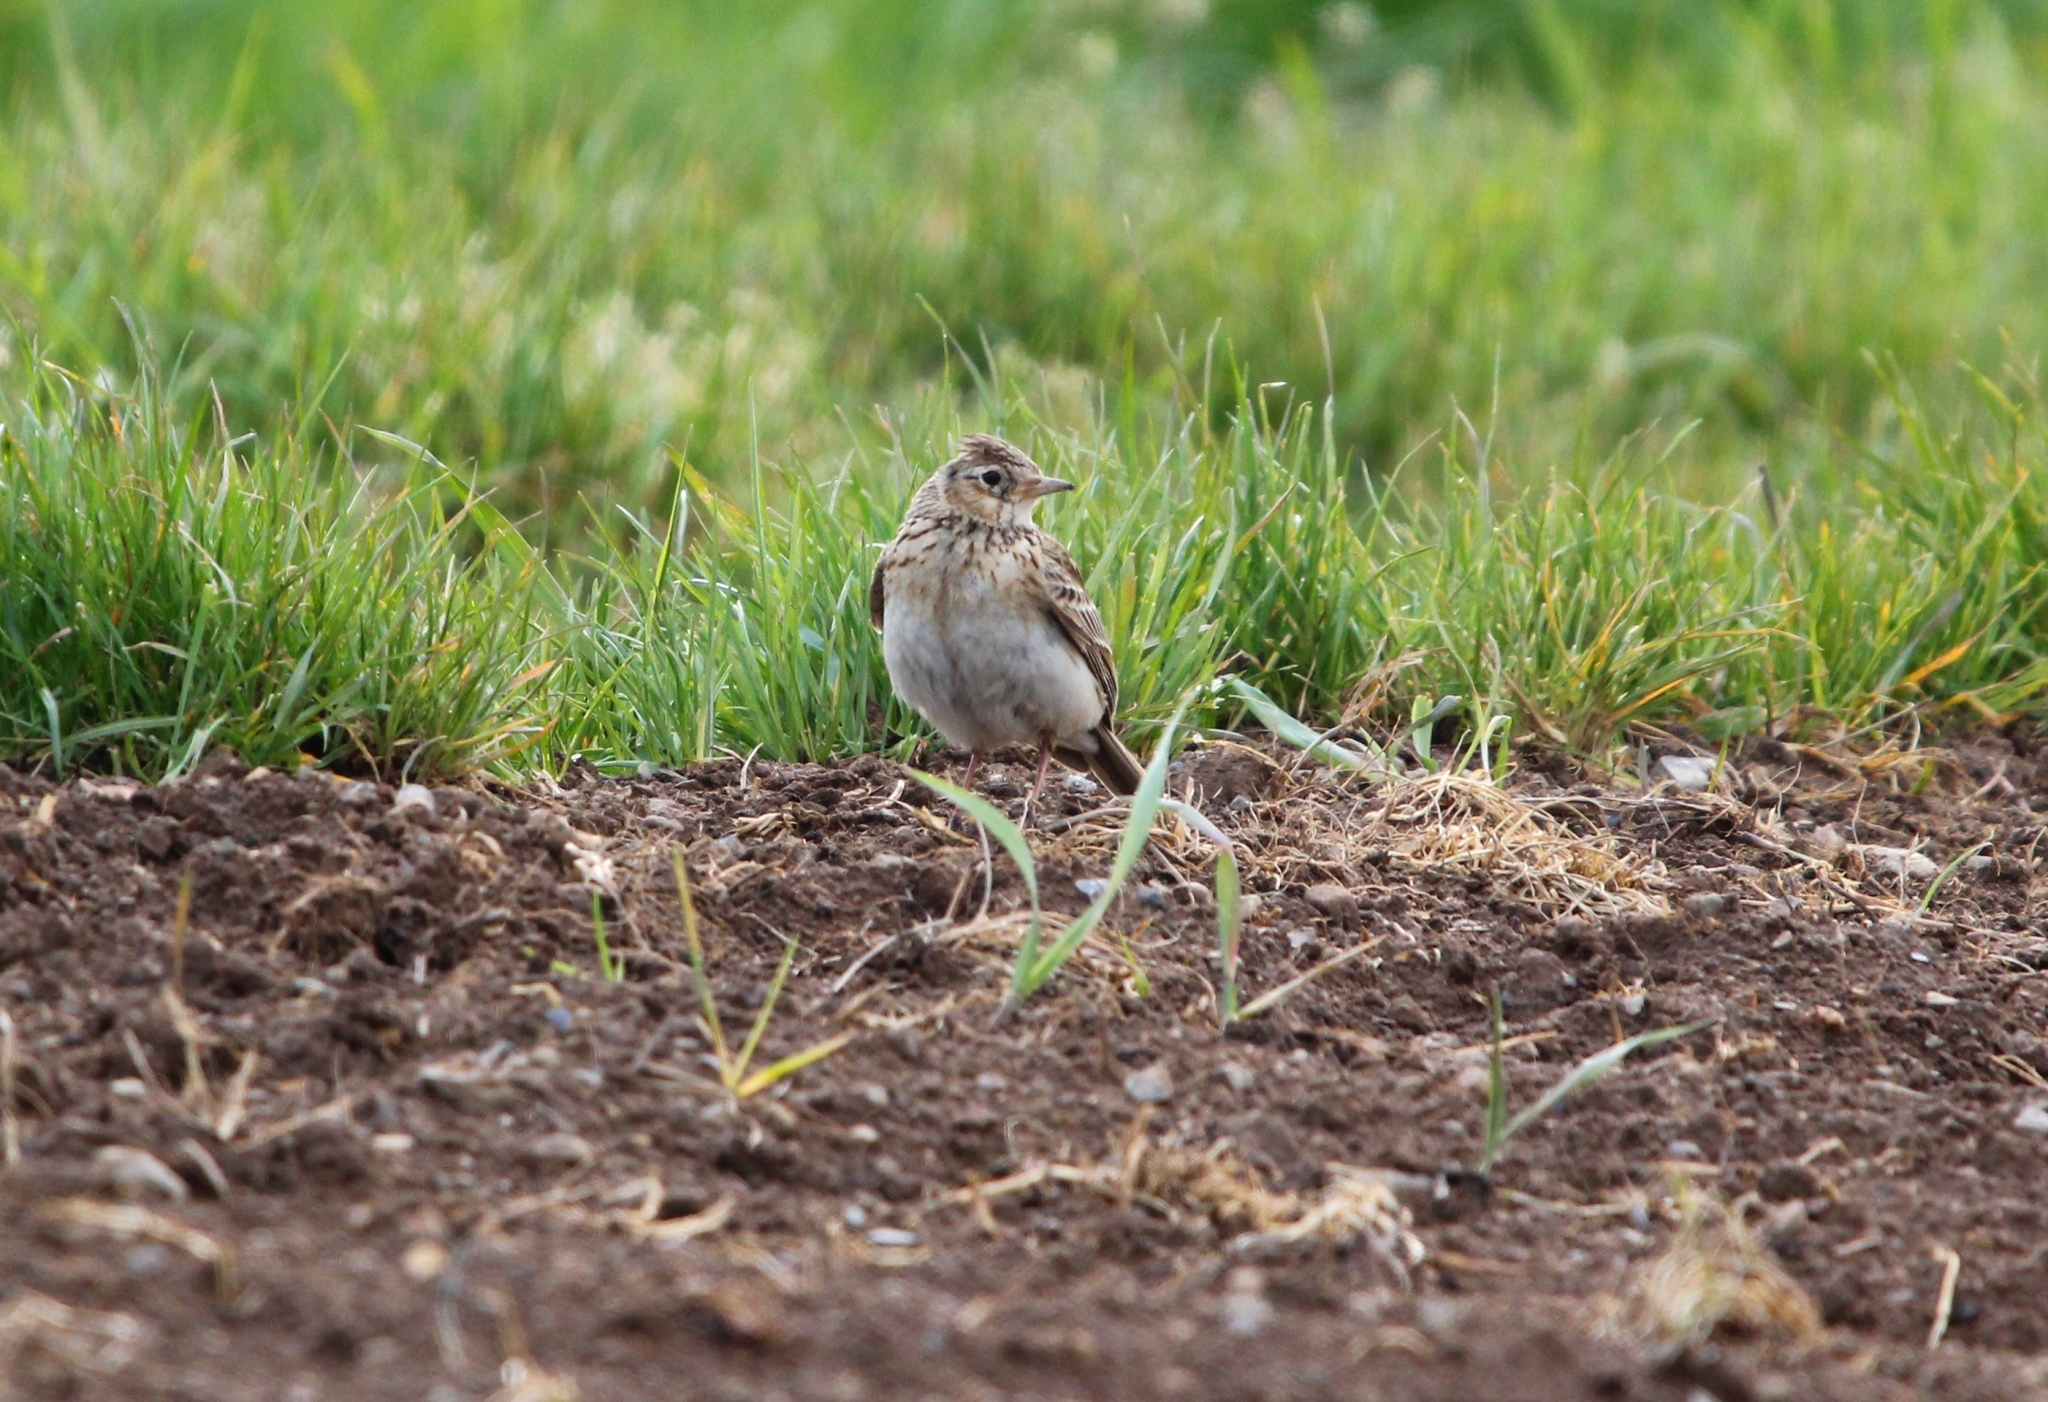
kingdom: Animalia
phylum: Chordata
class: Aves
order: Passeriformes
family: Alaudidae
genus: Alauda
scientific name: Alauda arvensis
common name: Eurasian skylark
